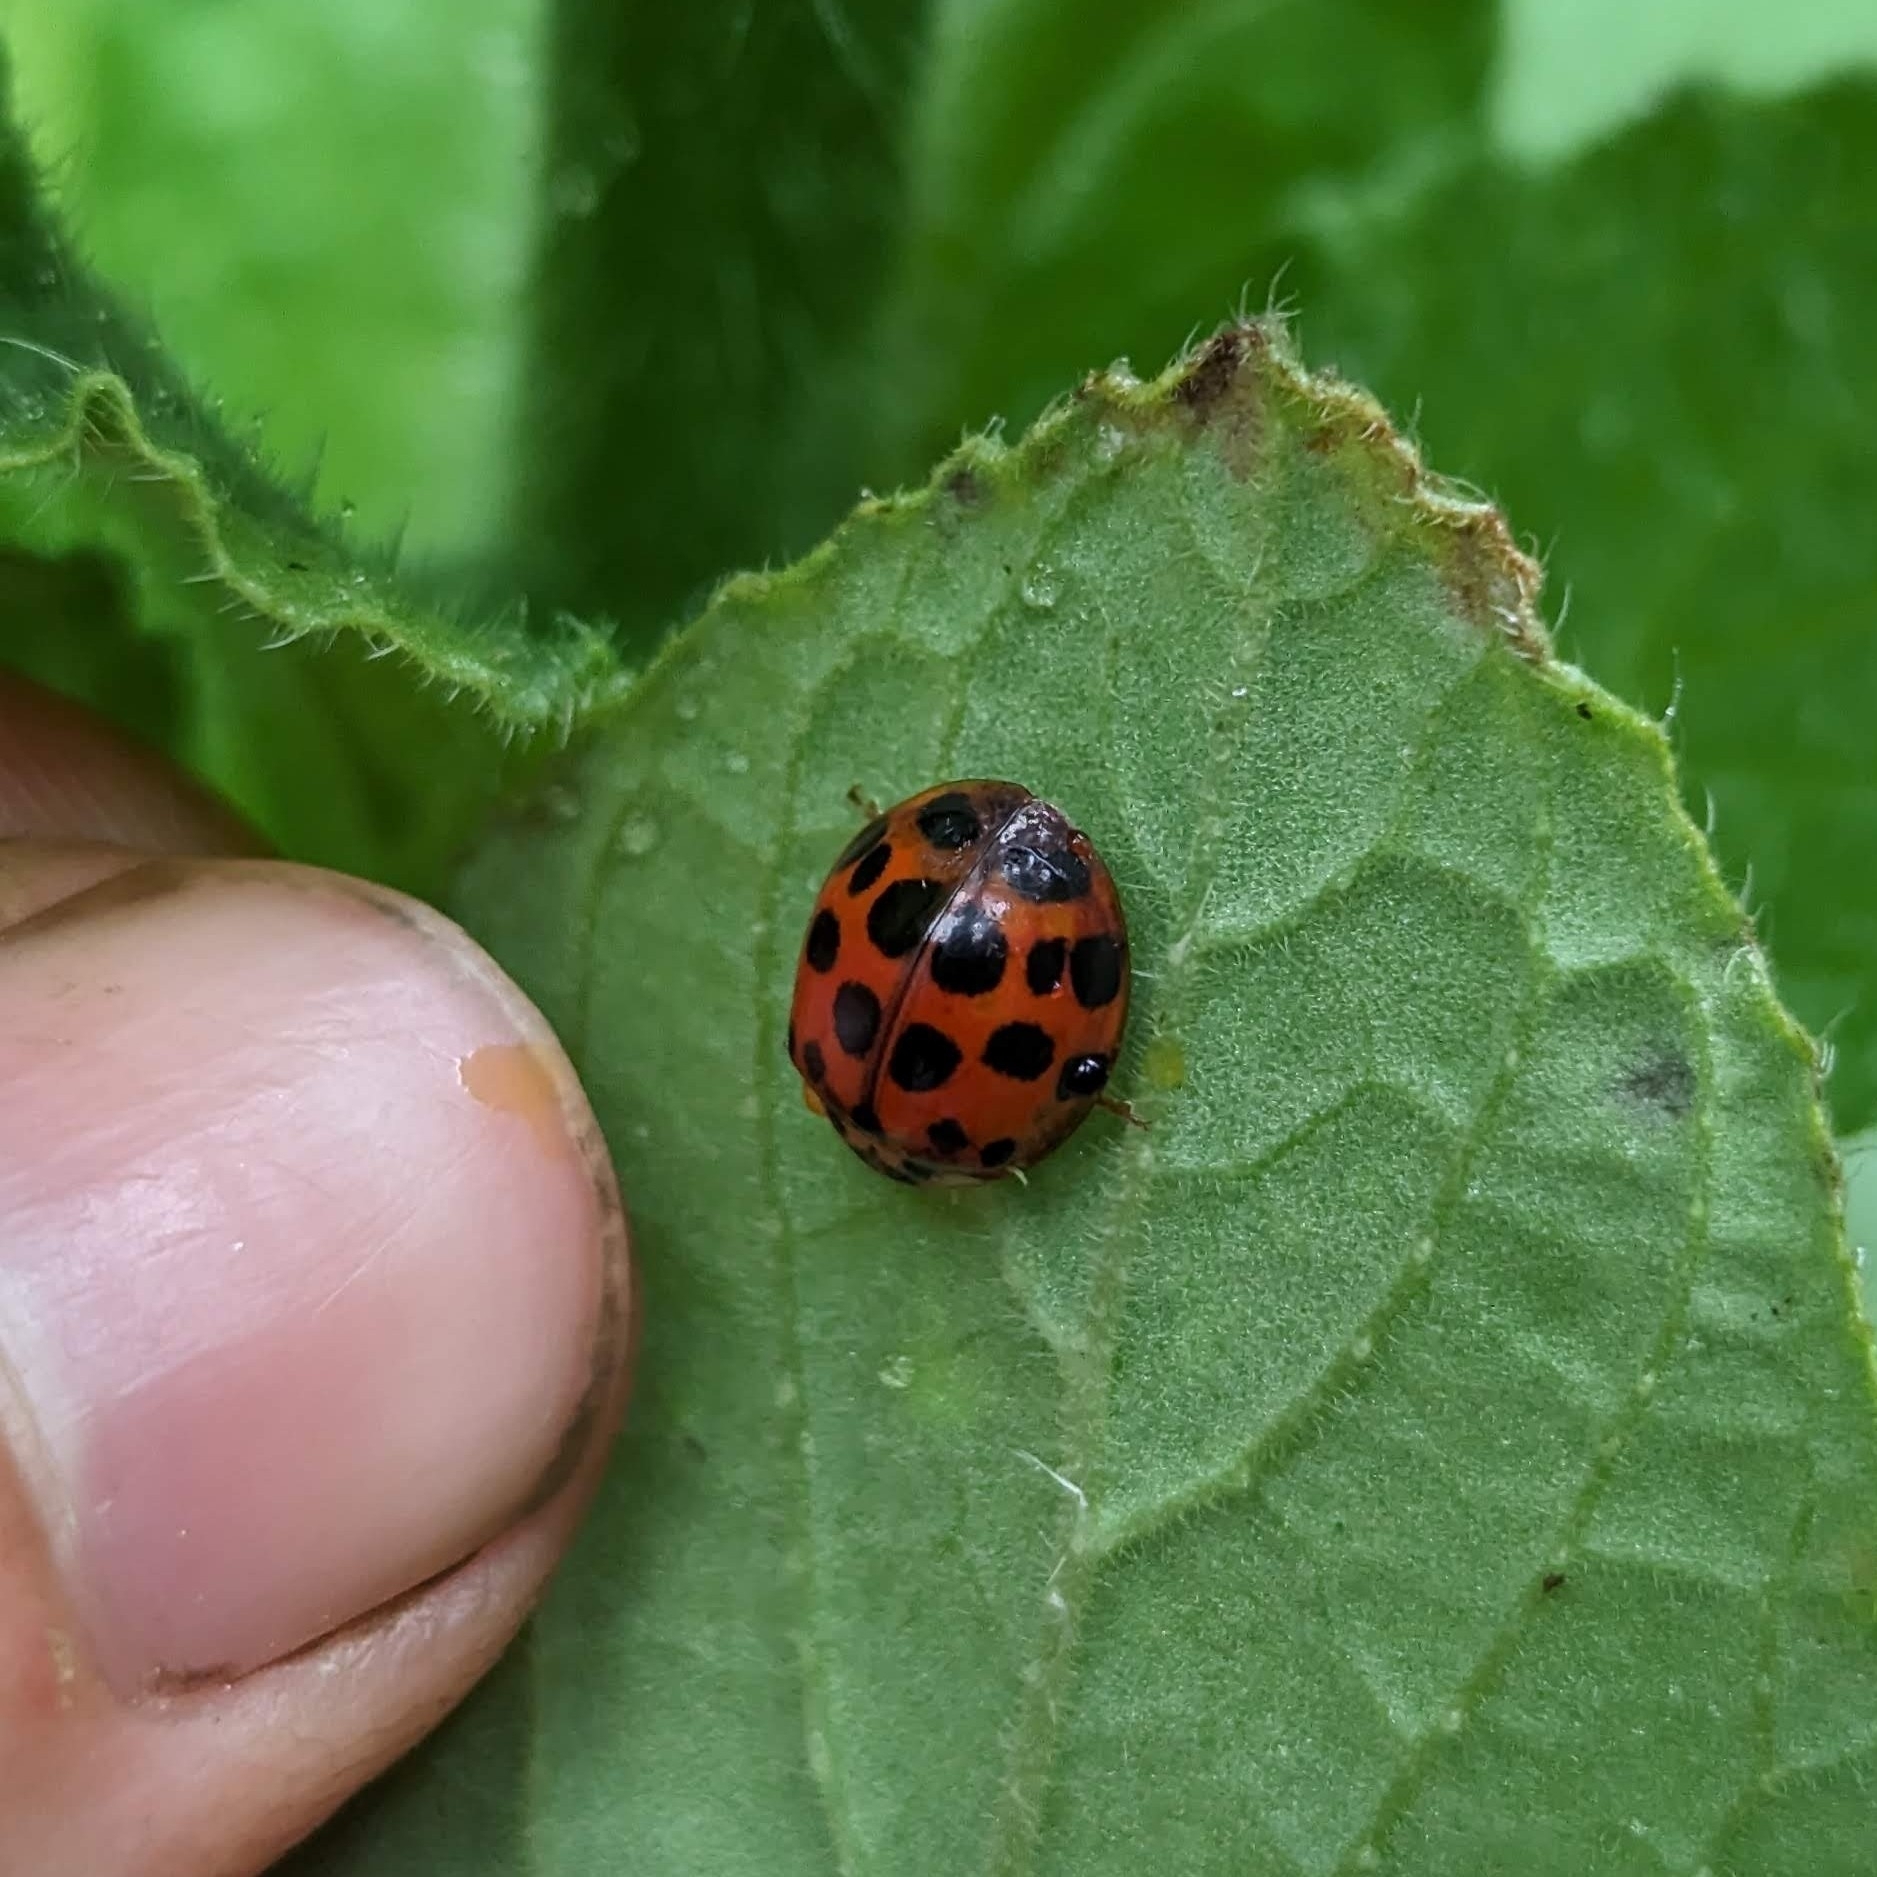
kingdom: Animalia
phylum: Arthropoda
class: Insecta
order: Coleoptera
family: Coccinellidae
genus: Harmonia
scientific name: Harmonia axyridis
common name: Harlequin ladybird
